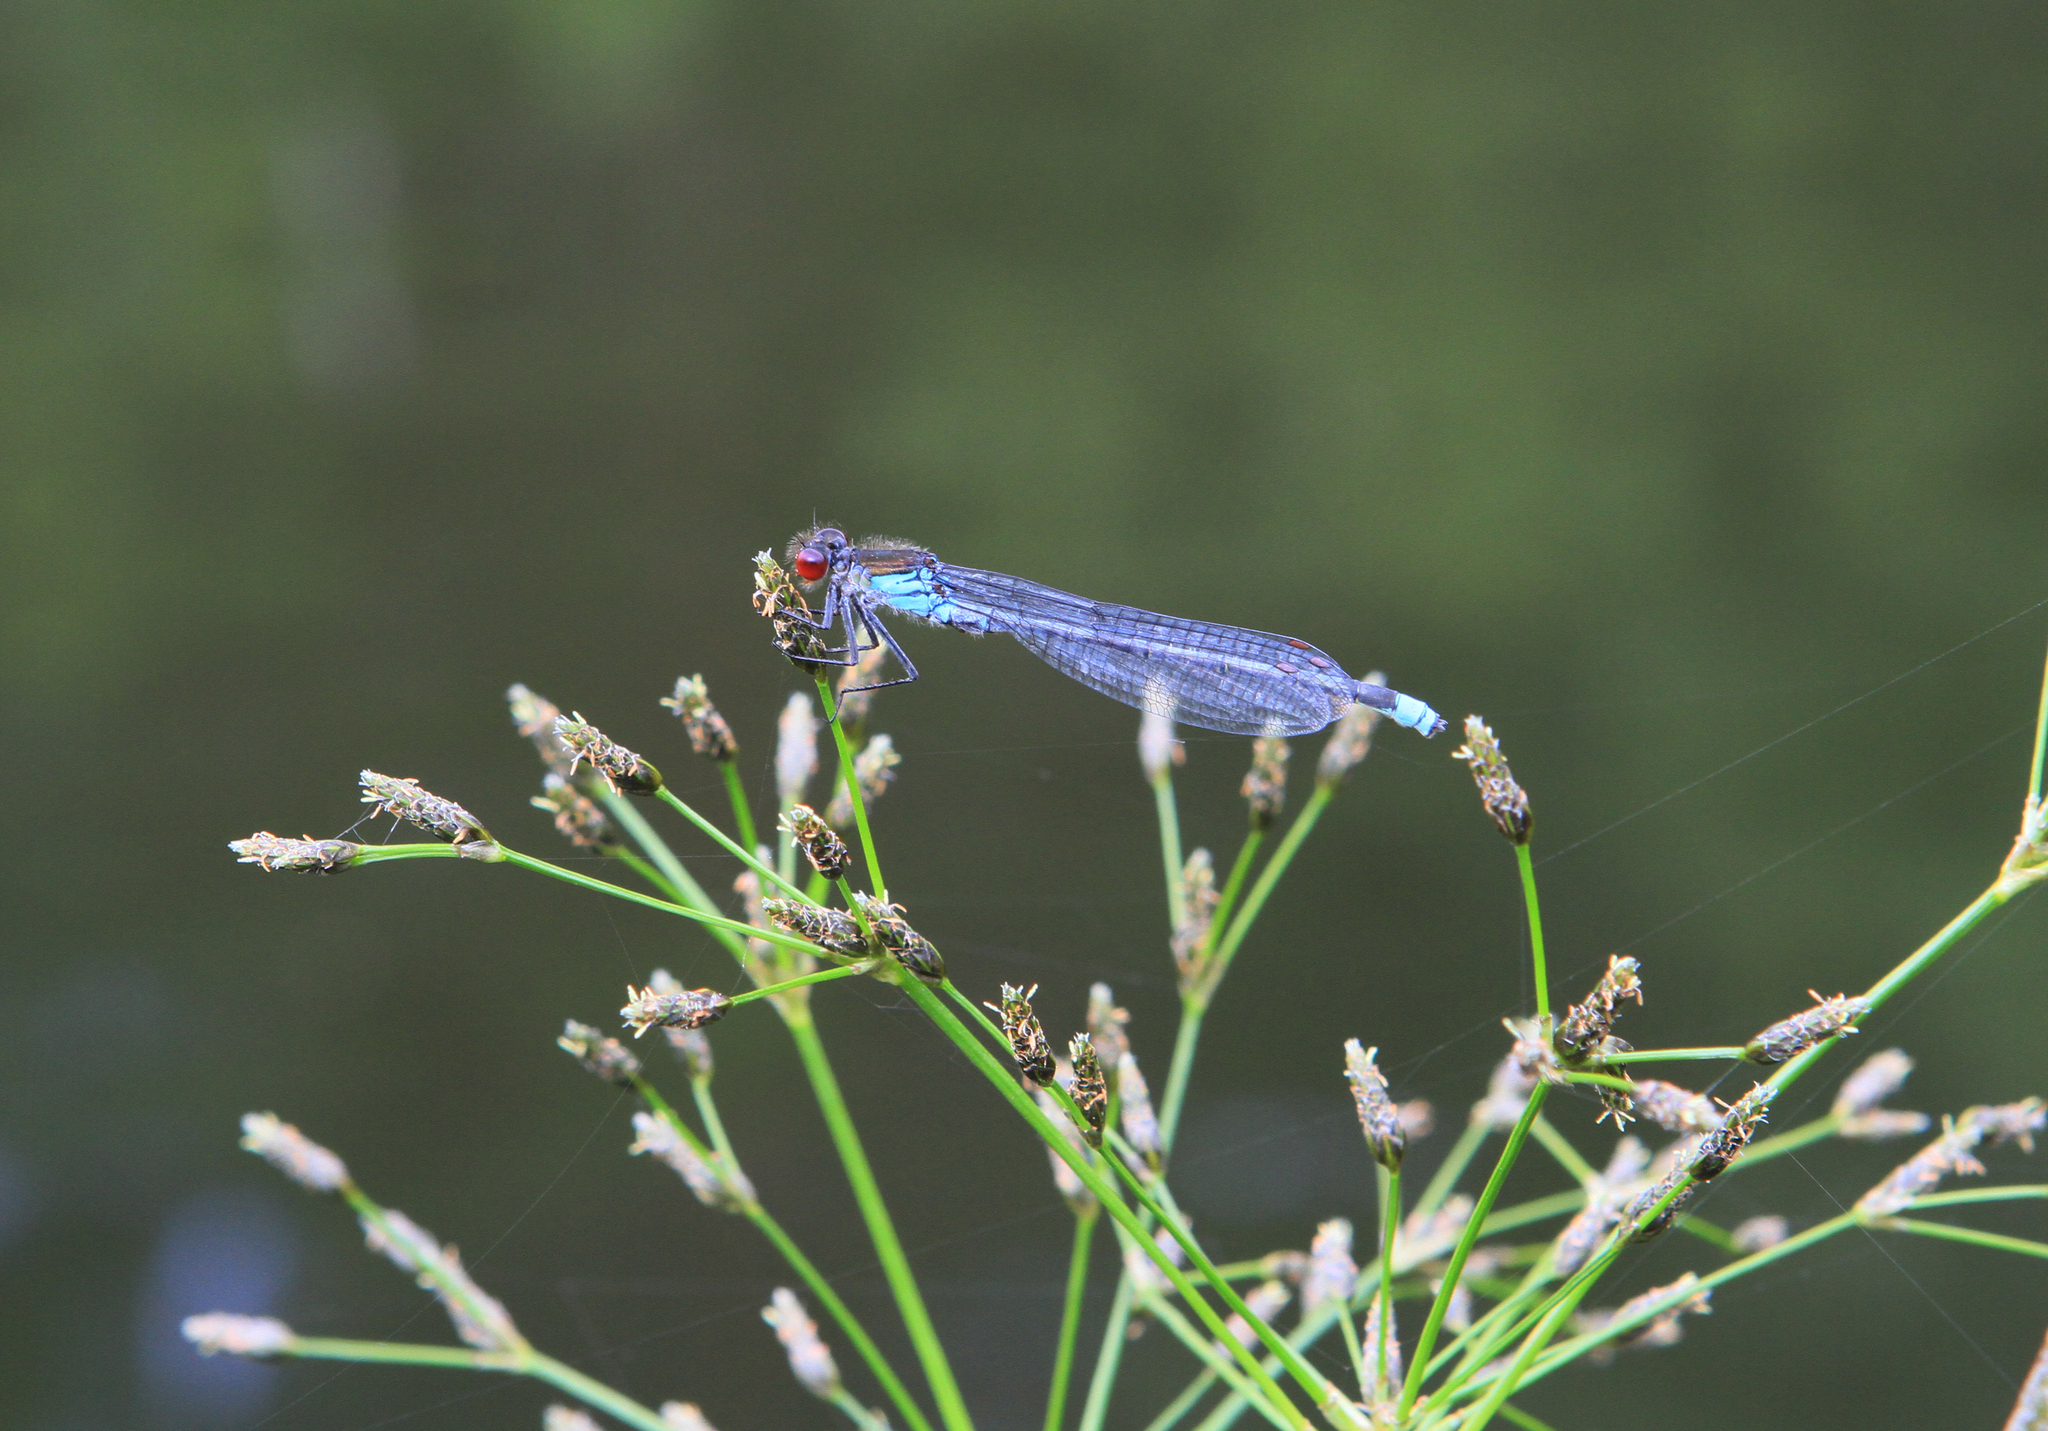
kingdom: Animalia
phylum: Arthropoda
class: Insecta
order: Odonata
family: Coenagrionidae
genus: Erythromma
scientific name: Erythromma najas
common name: Red-eyed damselfly
